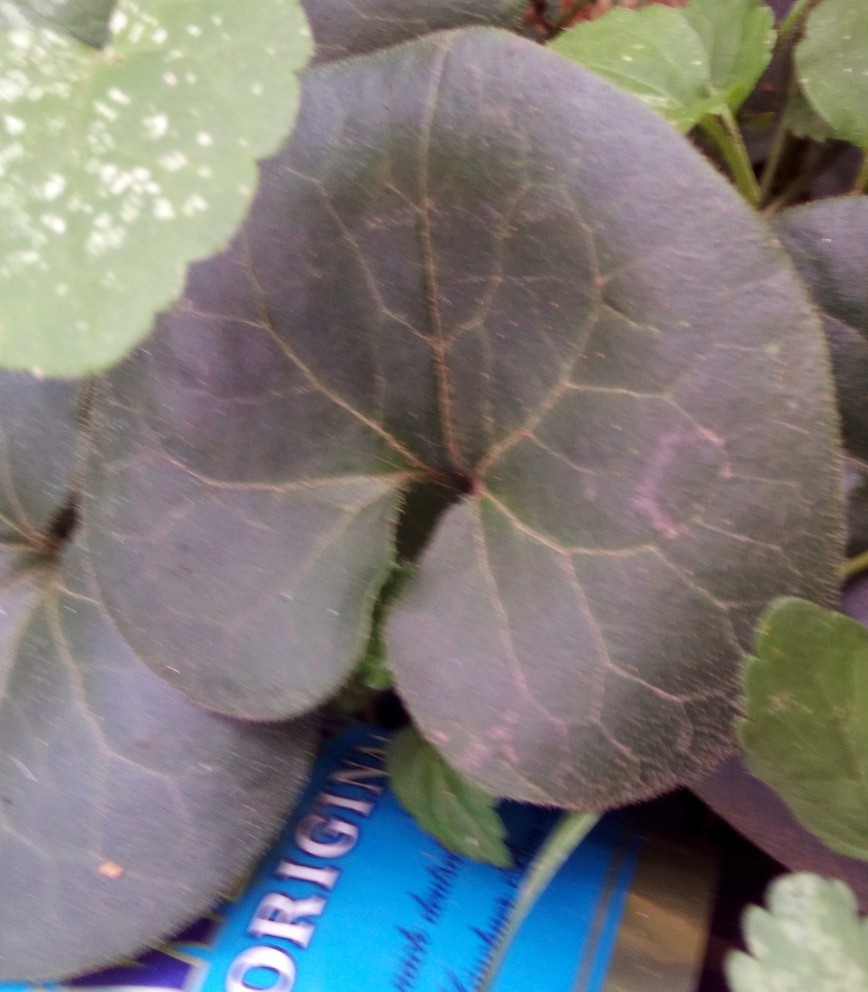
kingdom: Plantae
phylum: Tracheophyta
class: Magnoliopsida
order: Piperales
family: Aristolochiaceae
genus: Asarum
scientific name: Asarum europaeum
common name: Asarabacca
